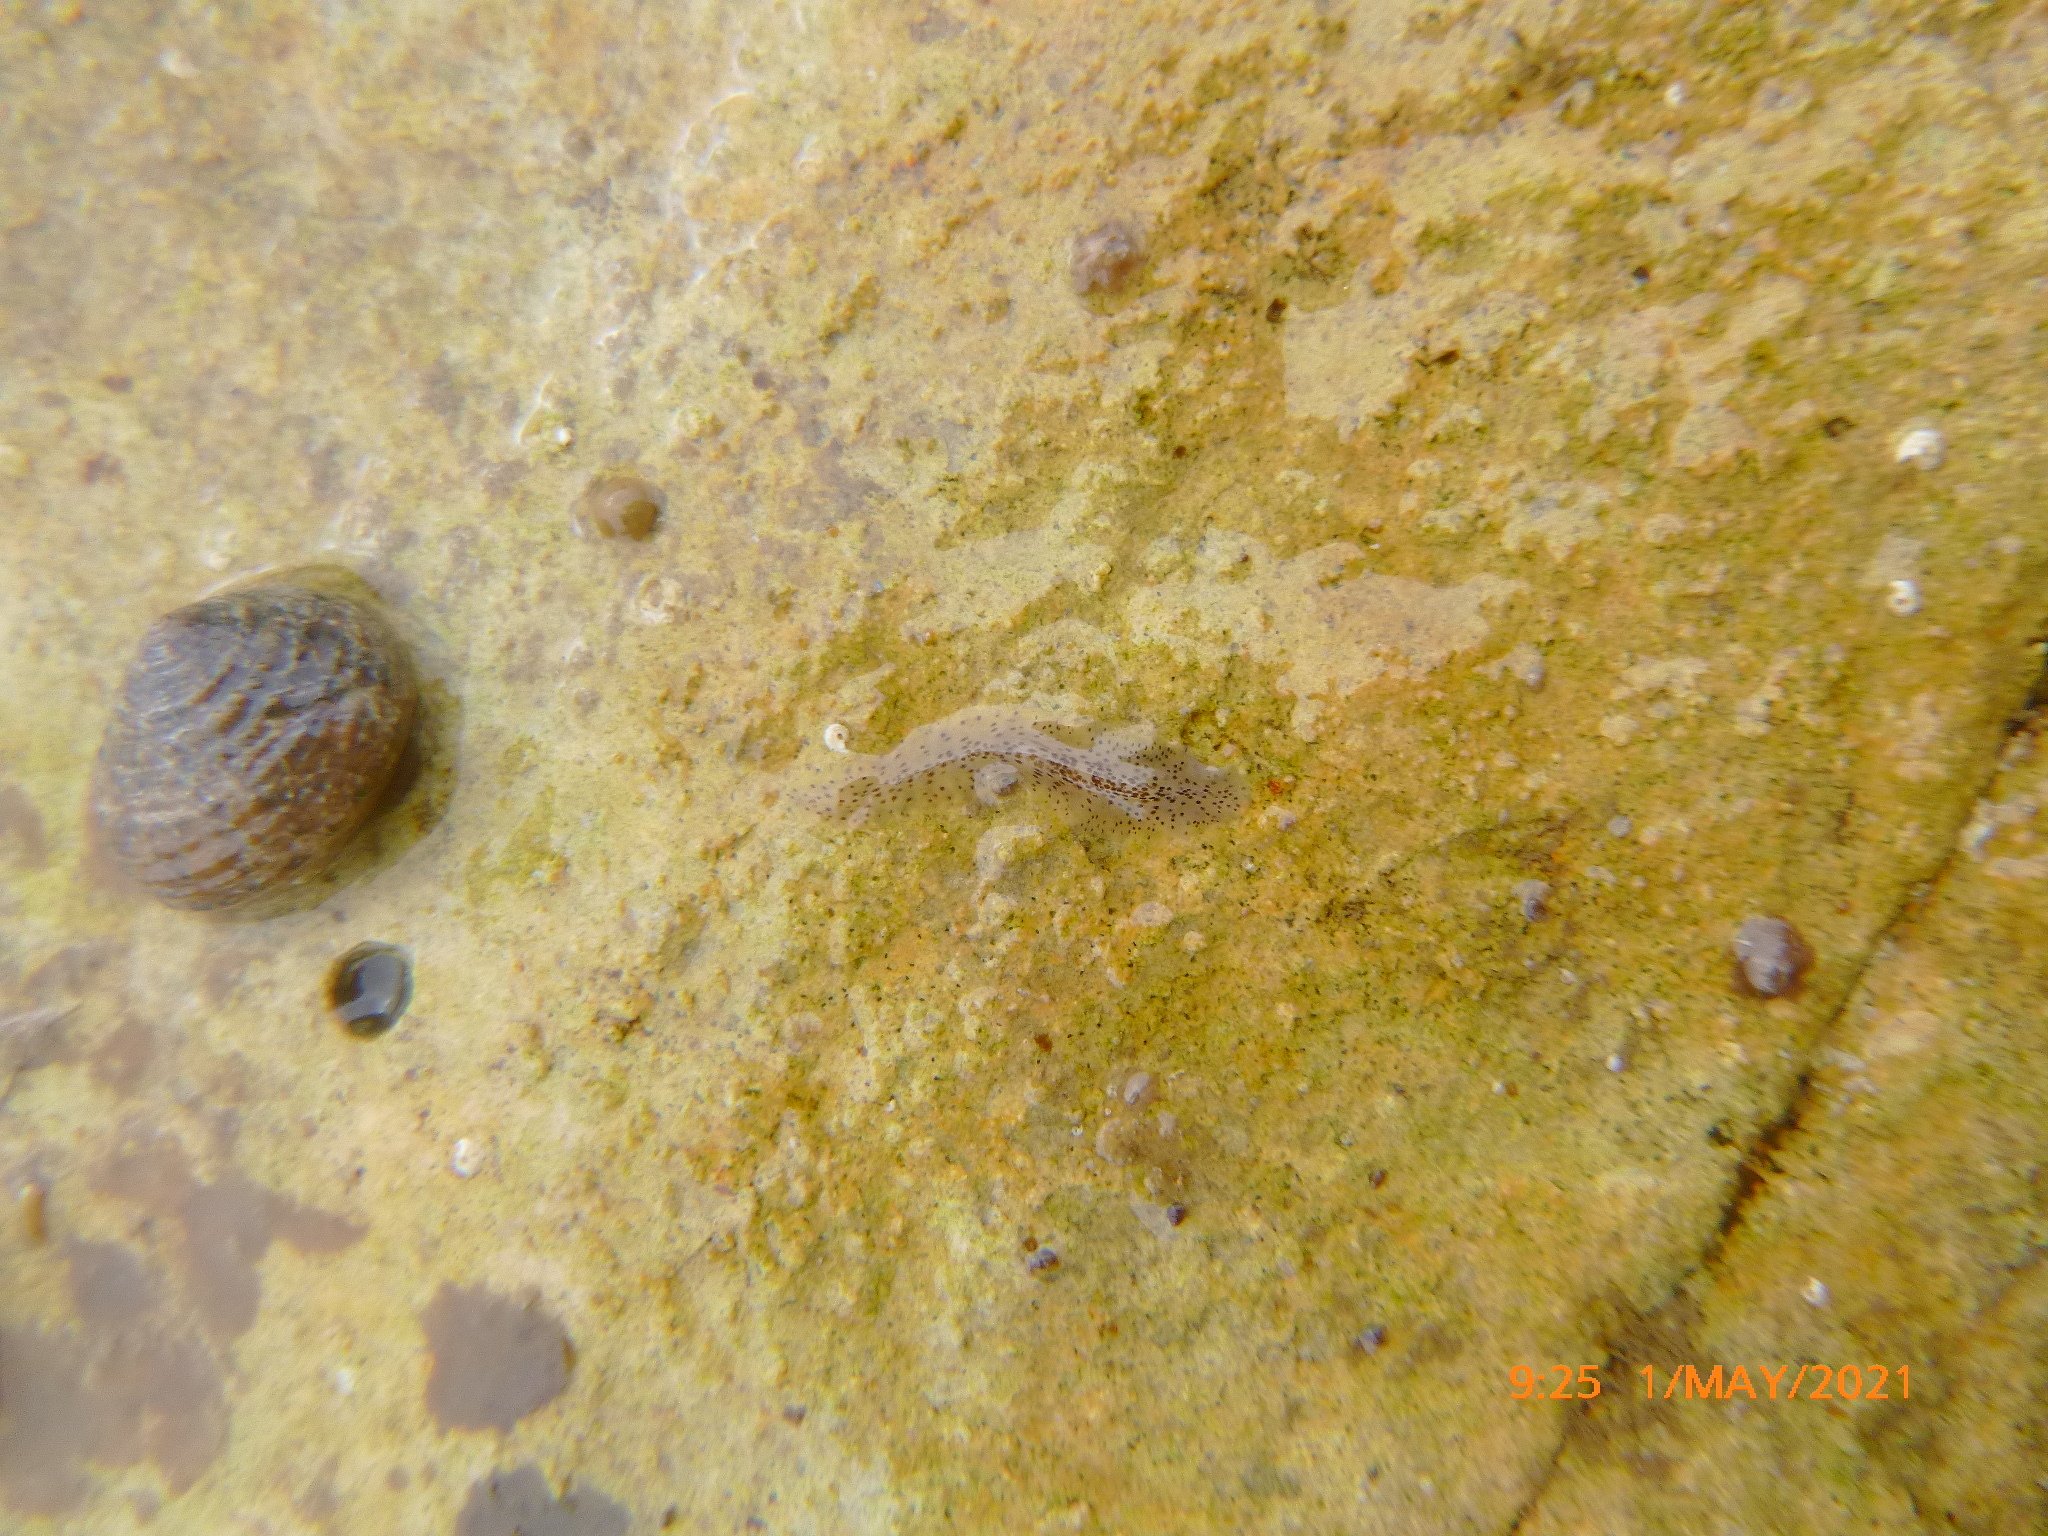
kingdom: Animalia
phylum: Platyhelminthes
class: Turbellaria
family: Prosthiostomidae
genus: Enchiridium
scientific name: Enchiridium punctatum
